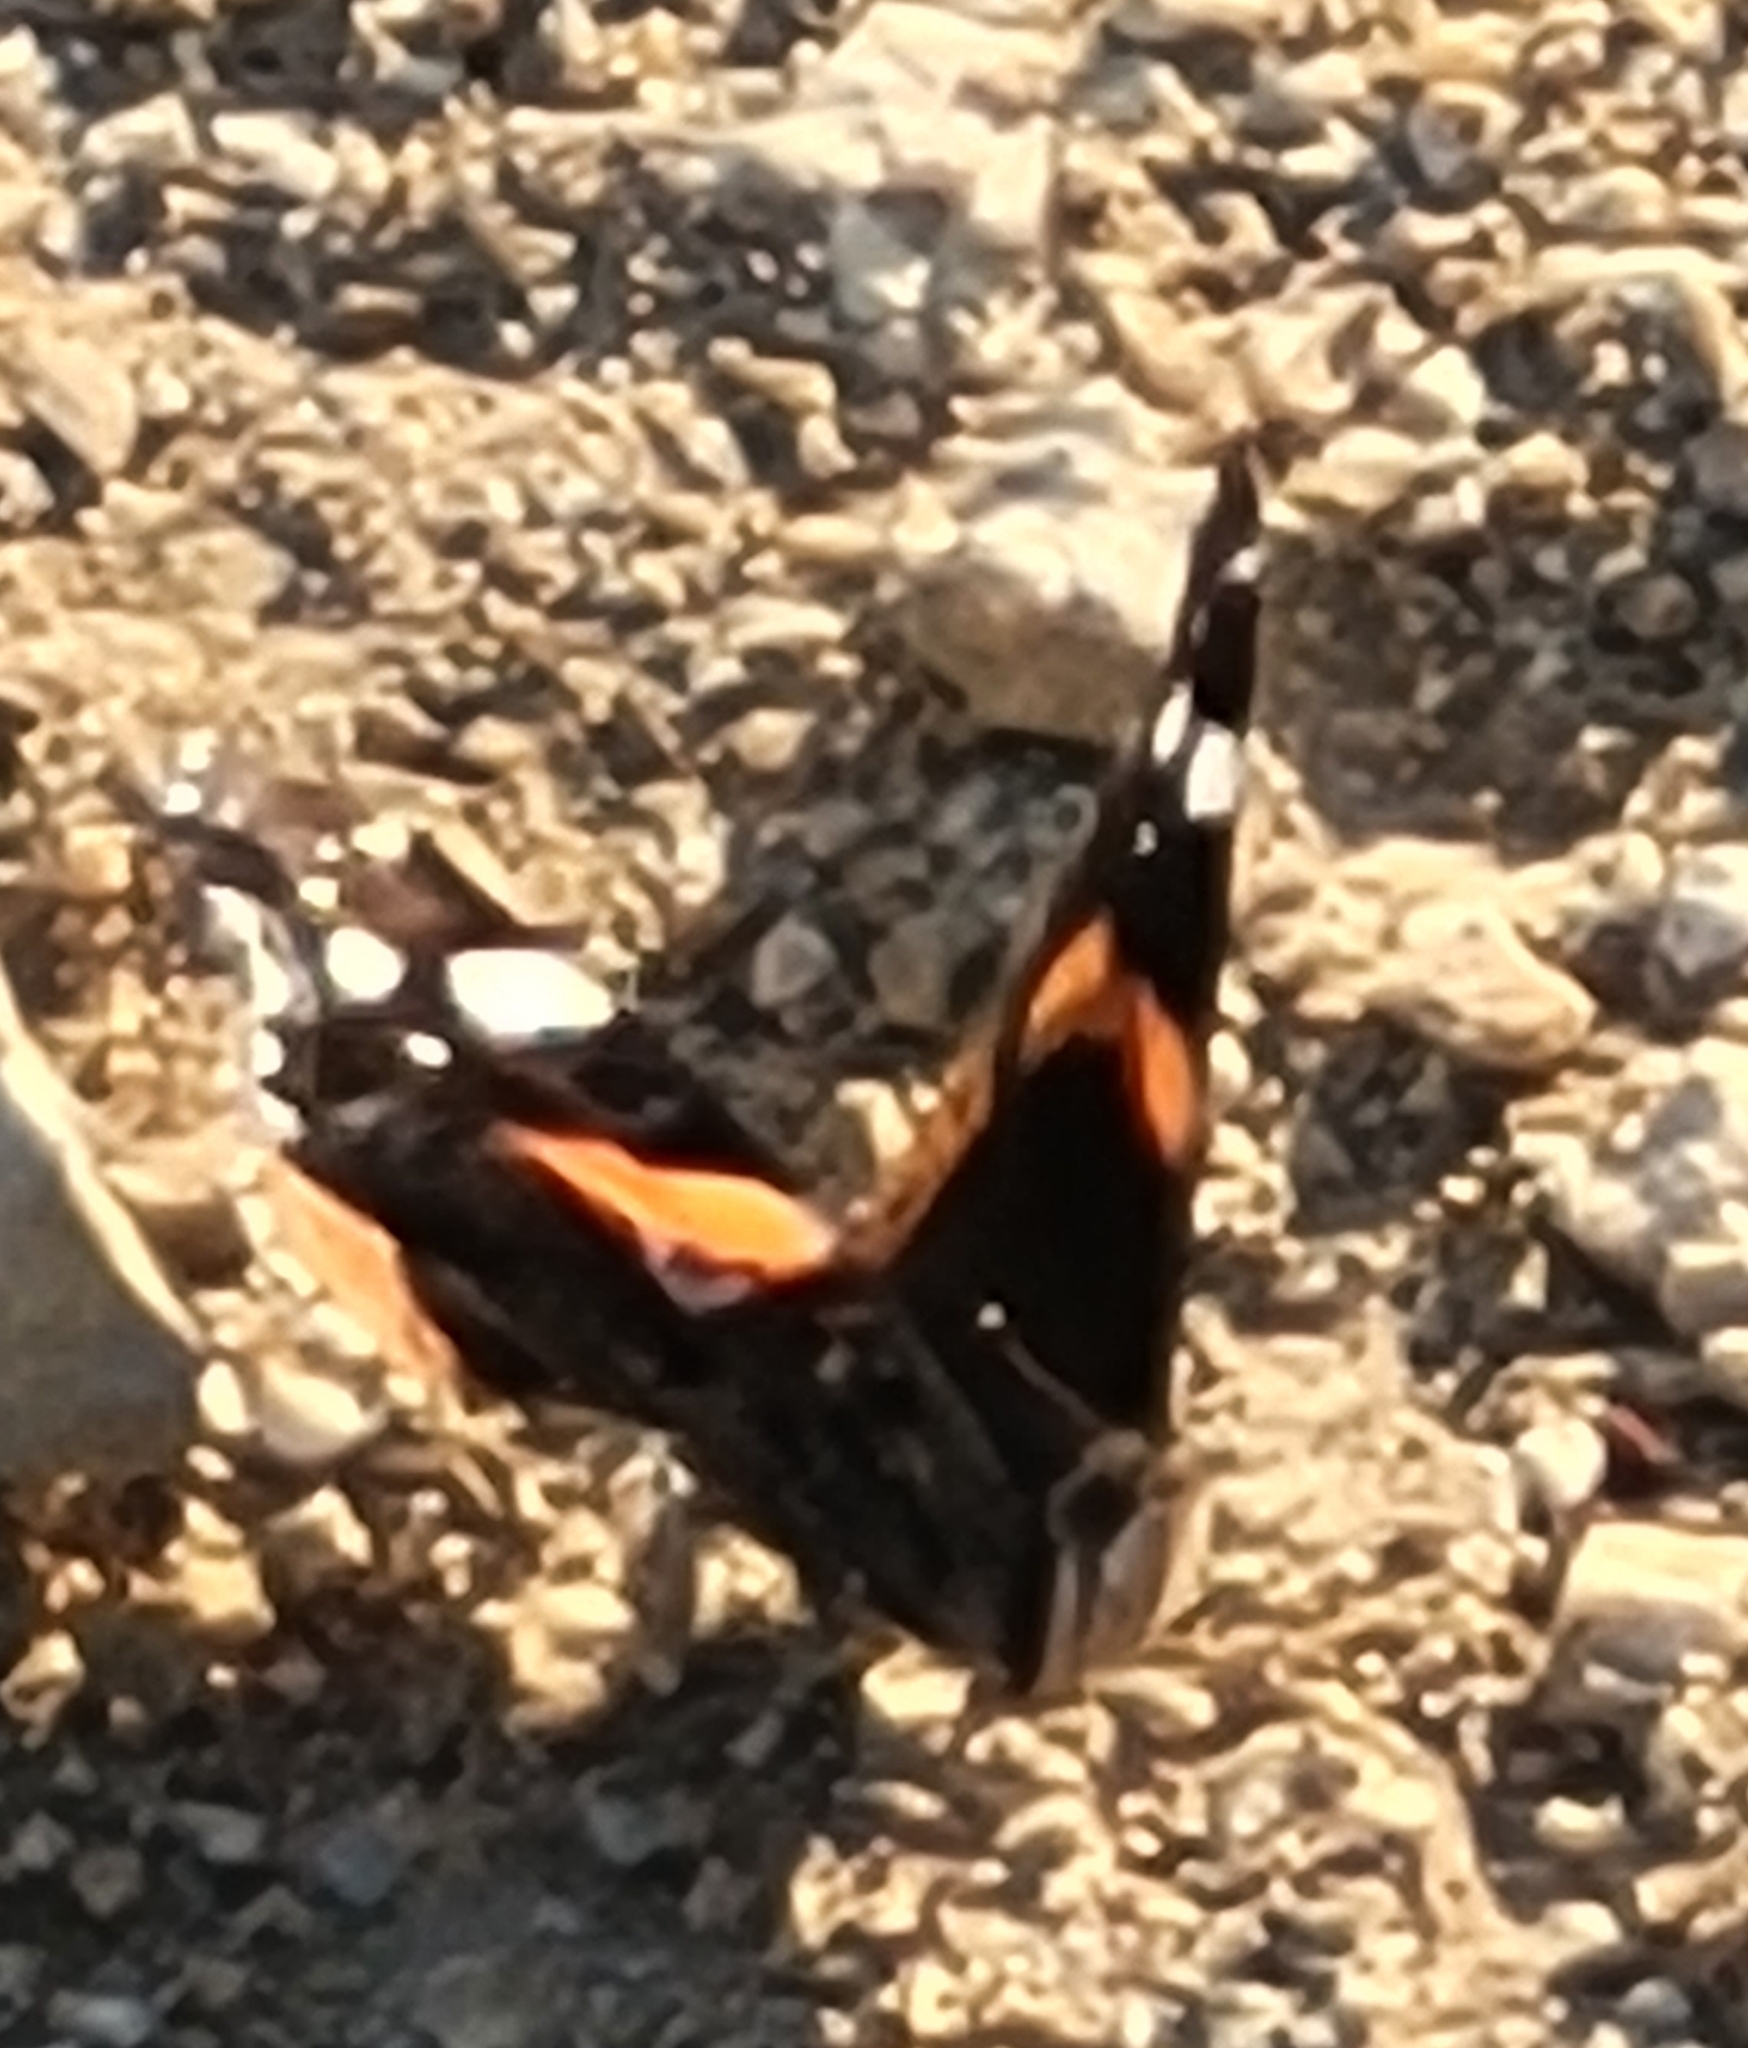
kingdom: Animalia
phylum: Arthropoda
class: Insecta
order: Lepidoptera
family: Nymphalidae
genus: Vanessa
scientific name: Vanessa atalanta
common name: Red admiral
